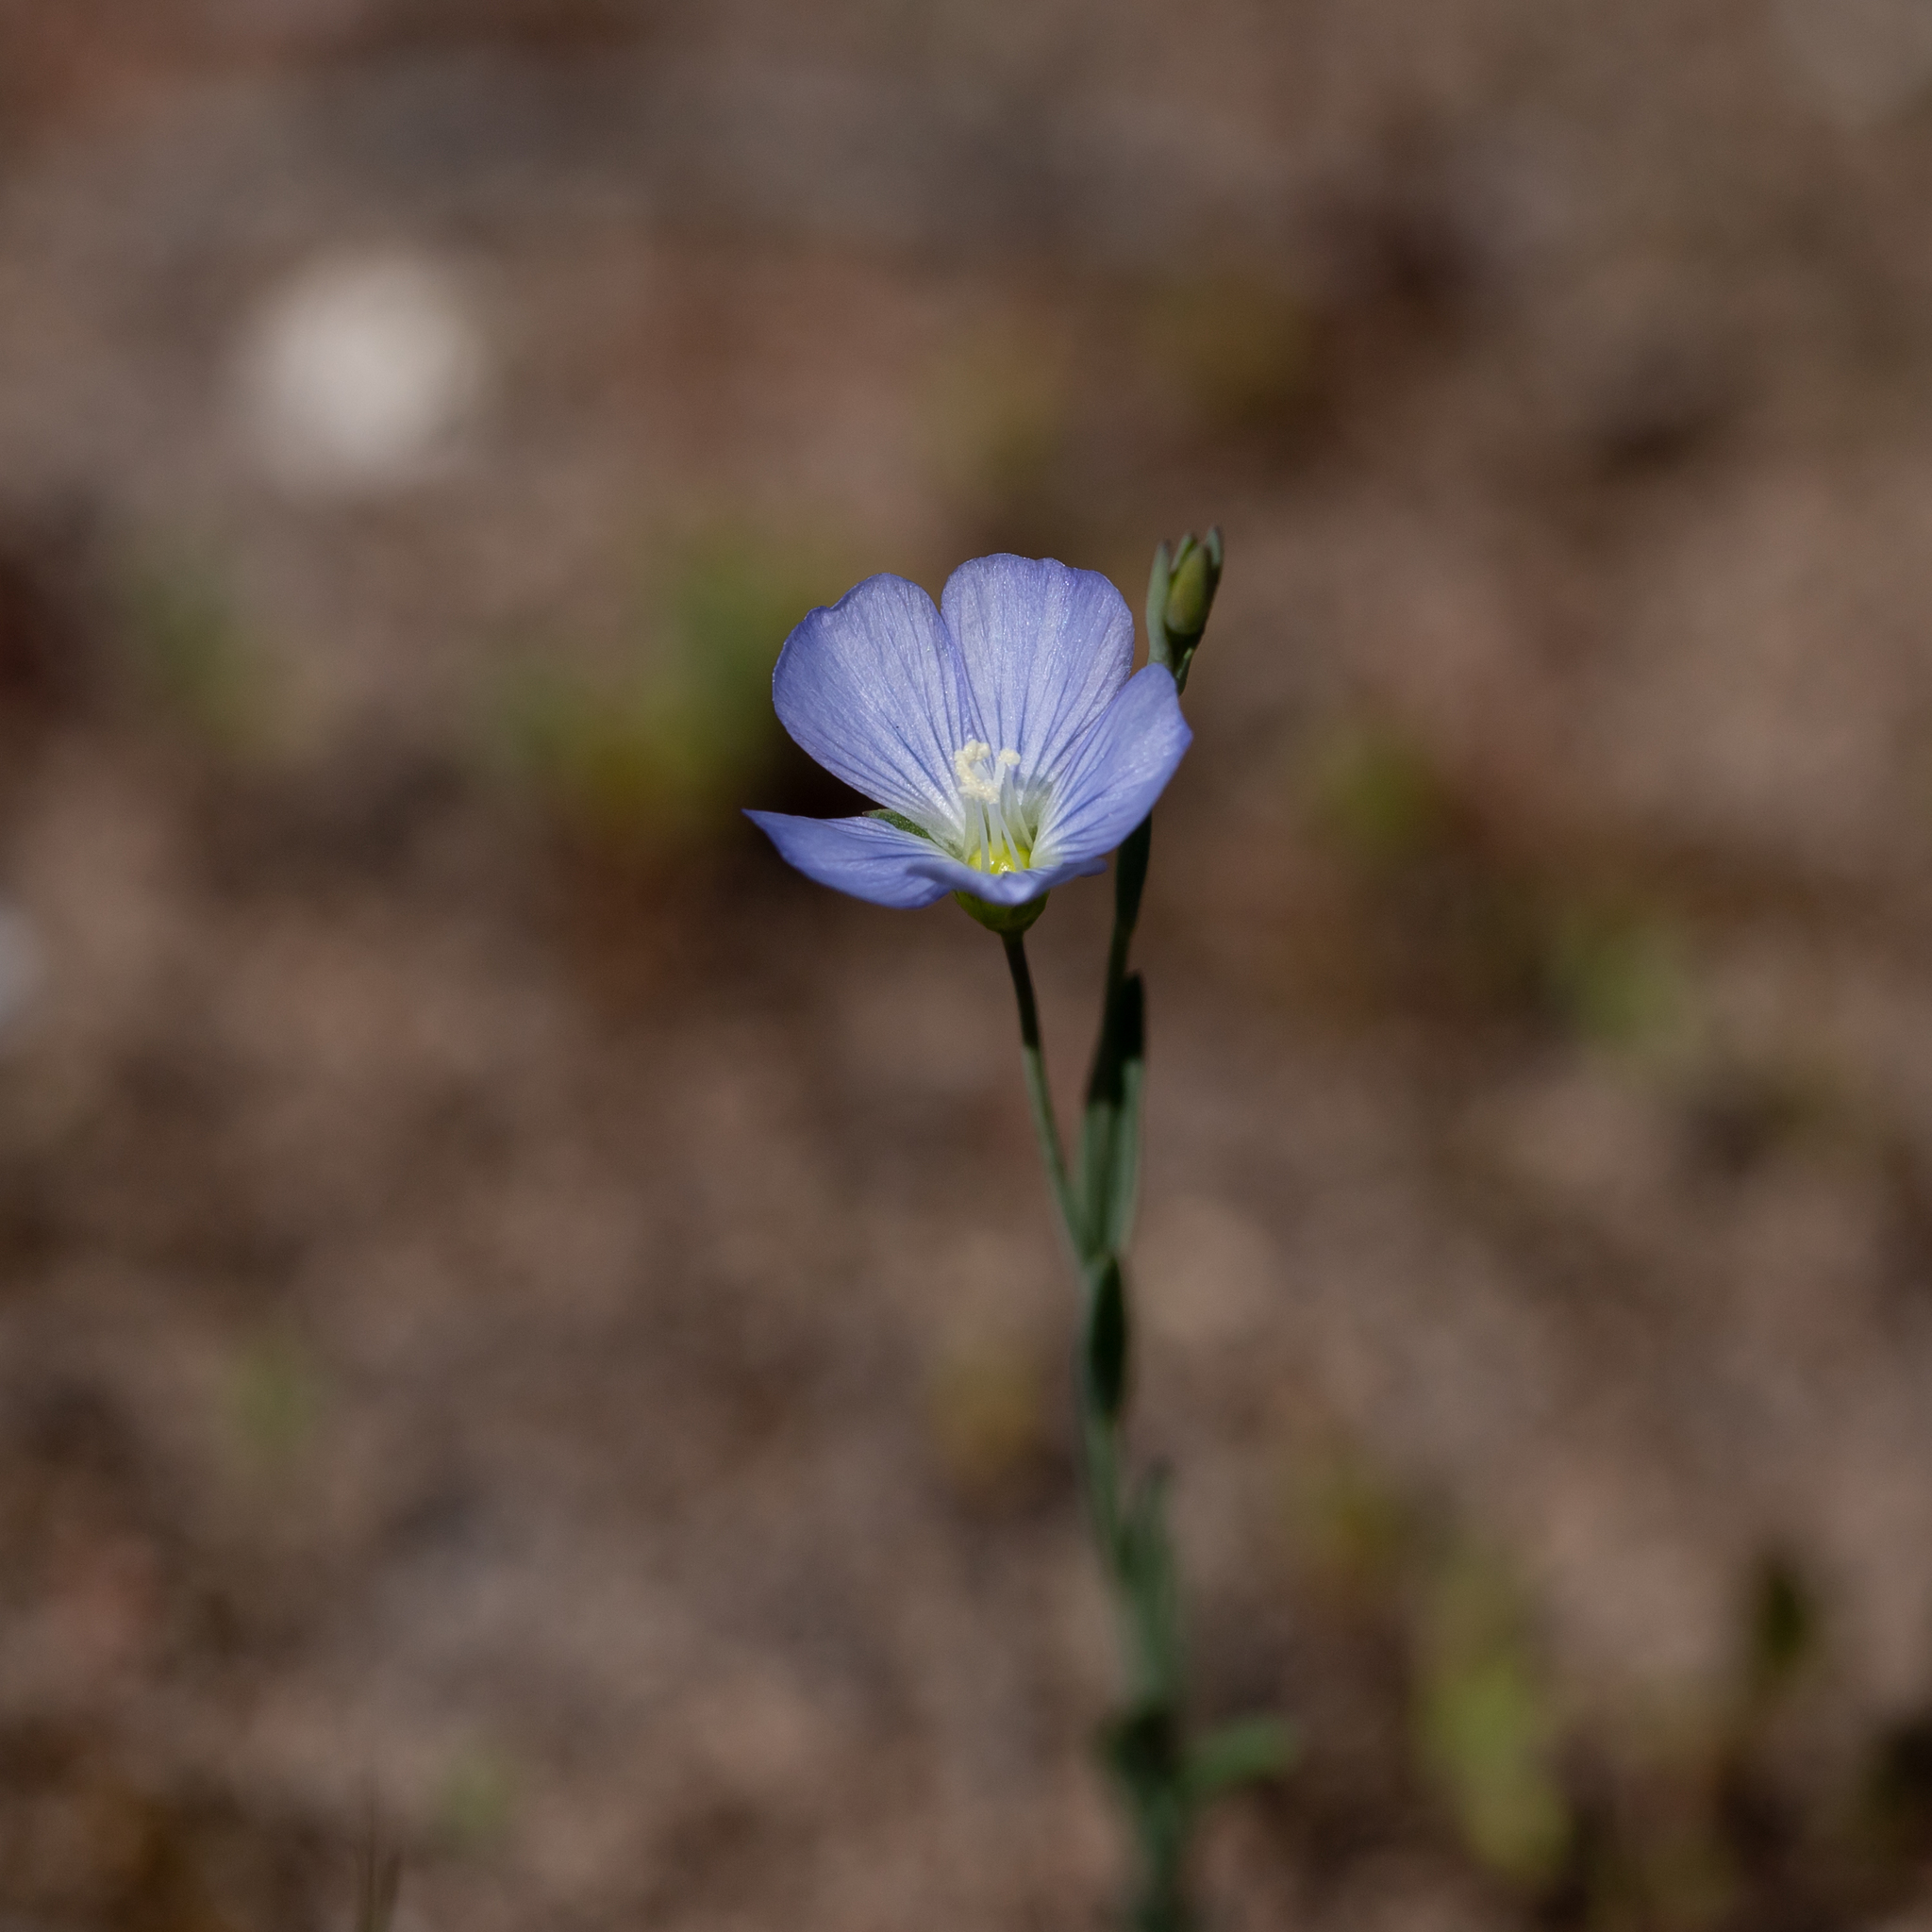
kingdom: Plantae
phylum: Tracheophyta
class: Magnoliopsida
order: Malpighiales
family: Linaceae
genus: Linum
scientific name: Linum marginale
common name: Wild flax
